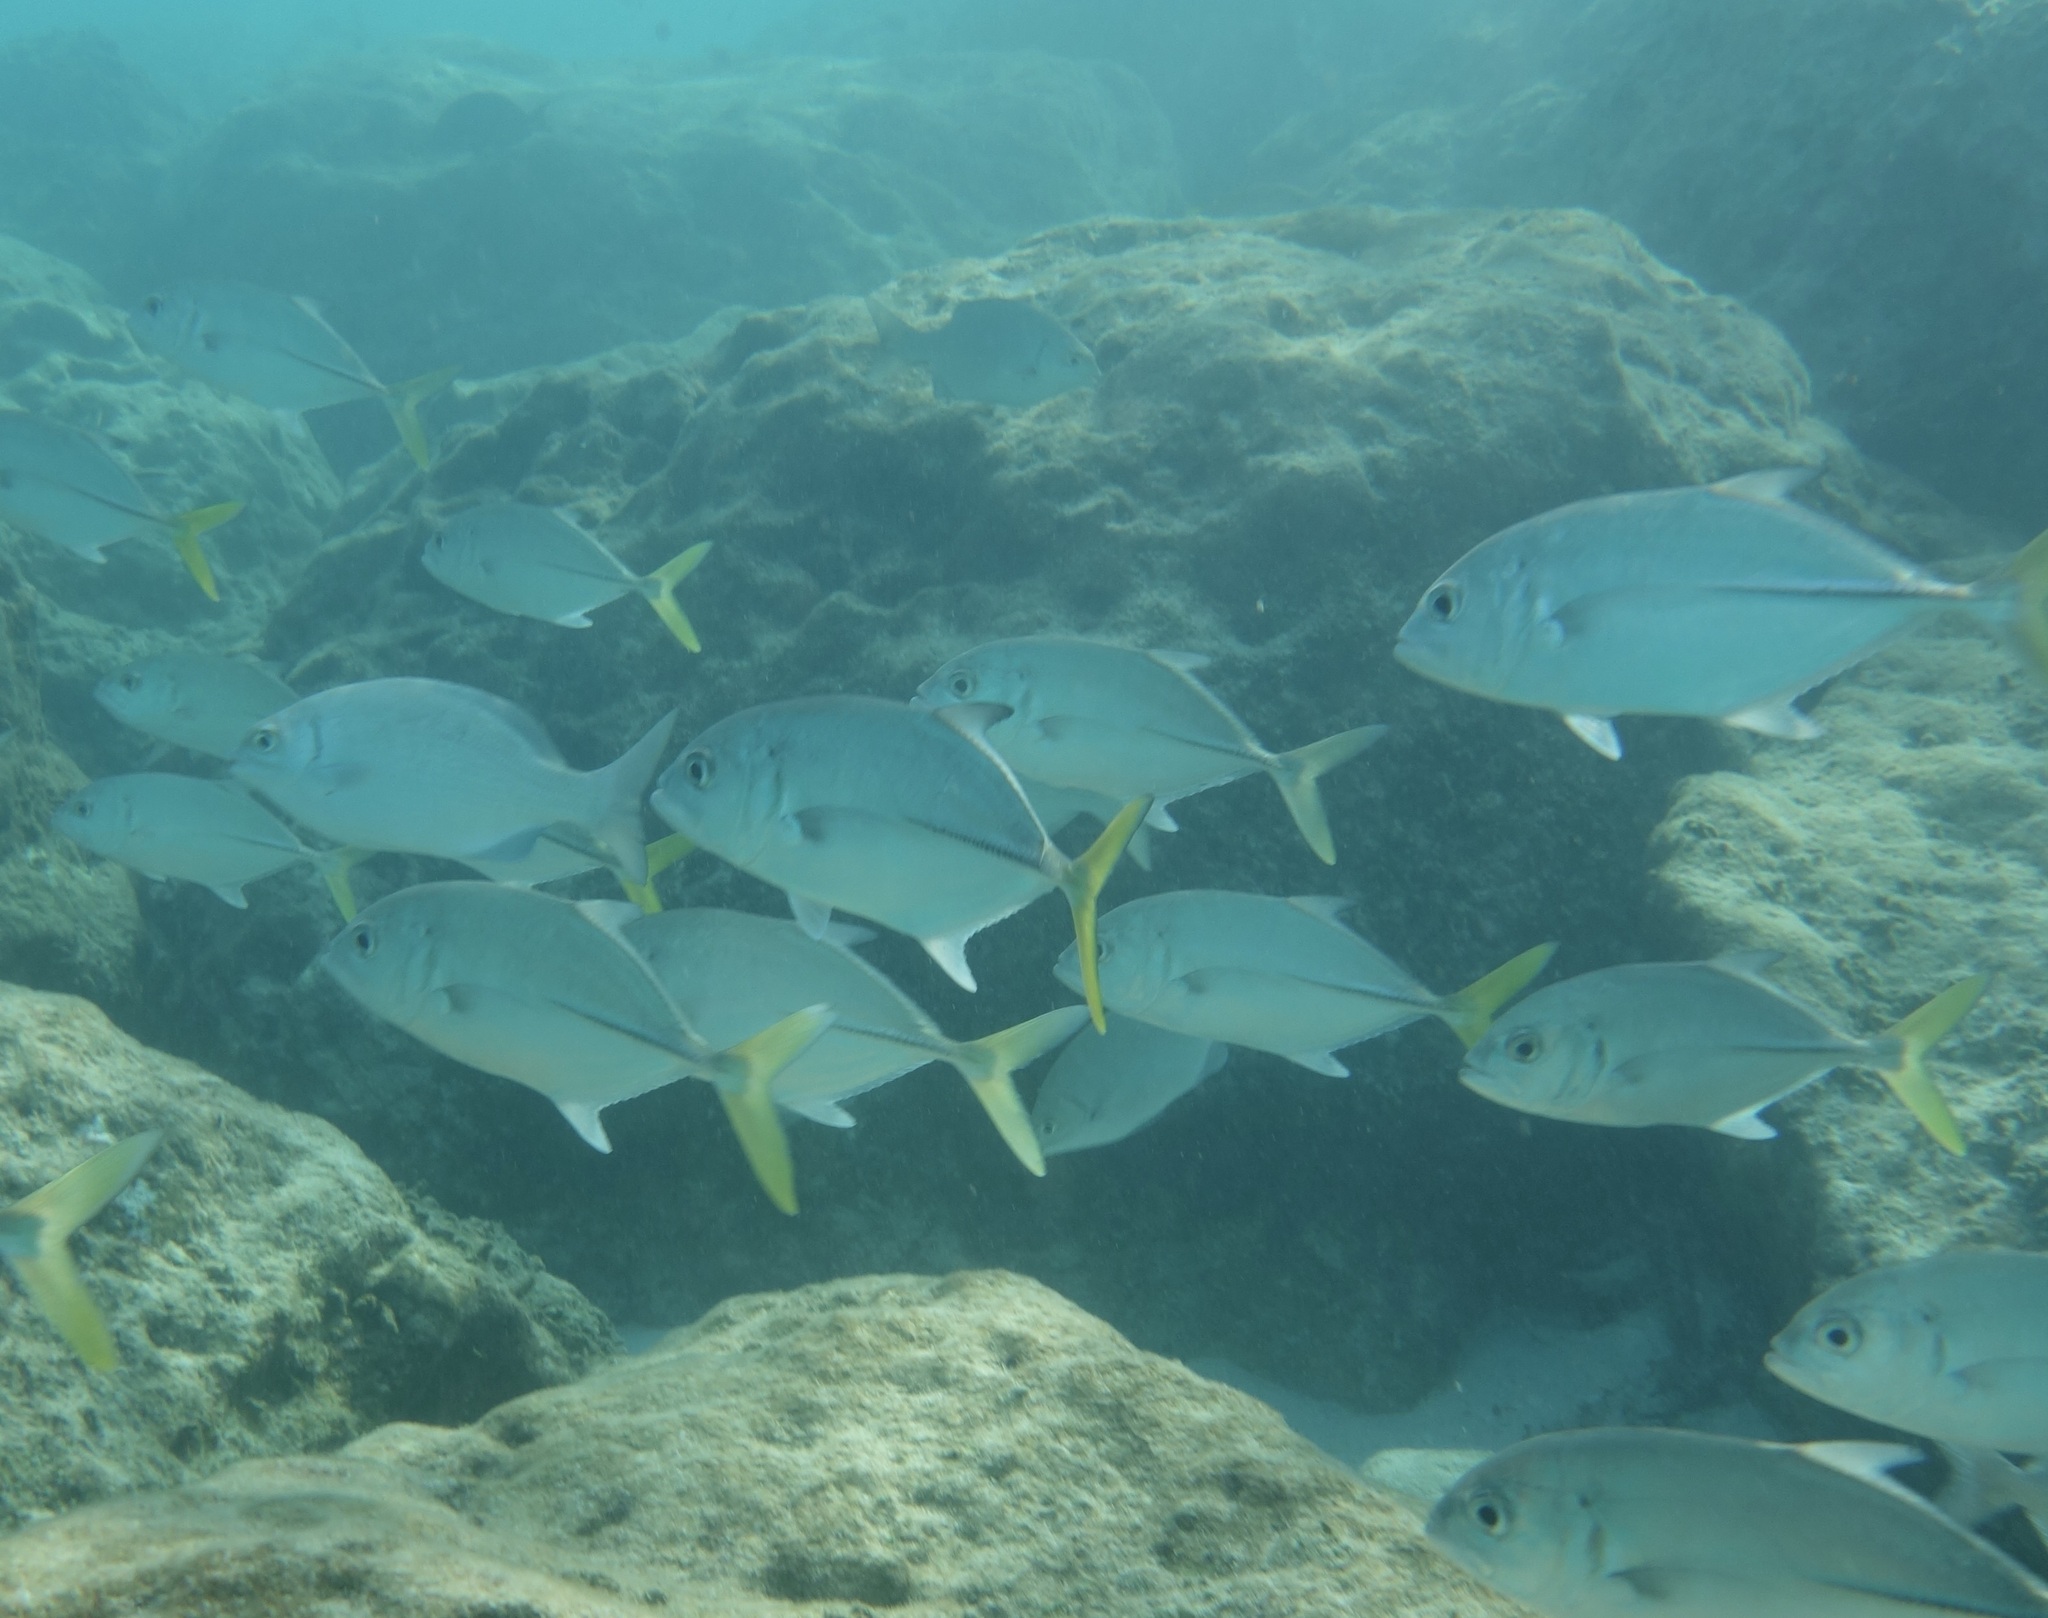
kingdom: Animalia
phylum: Chordata
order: Perciformes
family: Carangidae
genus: Caranx
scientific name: Caranx latus
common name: Horse eye jack
